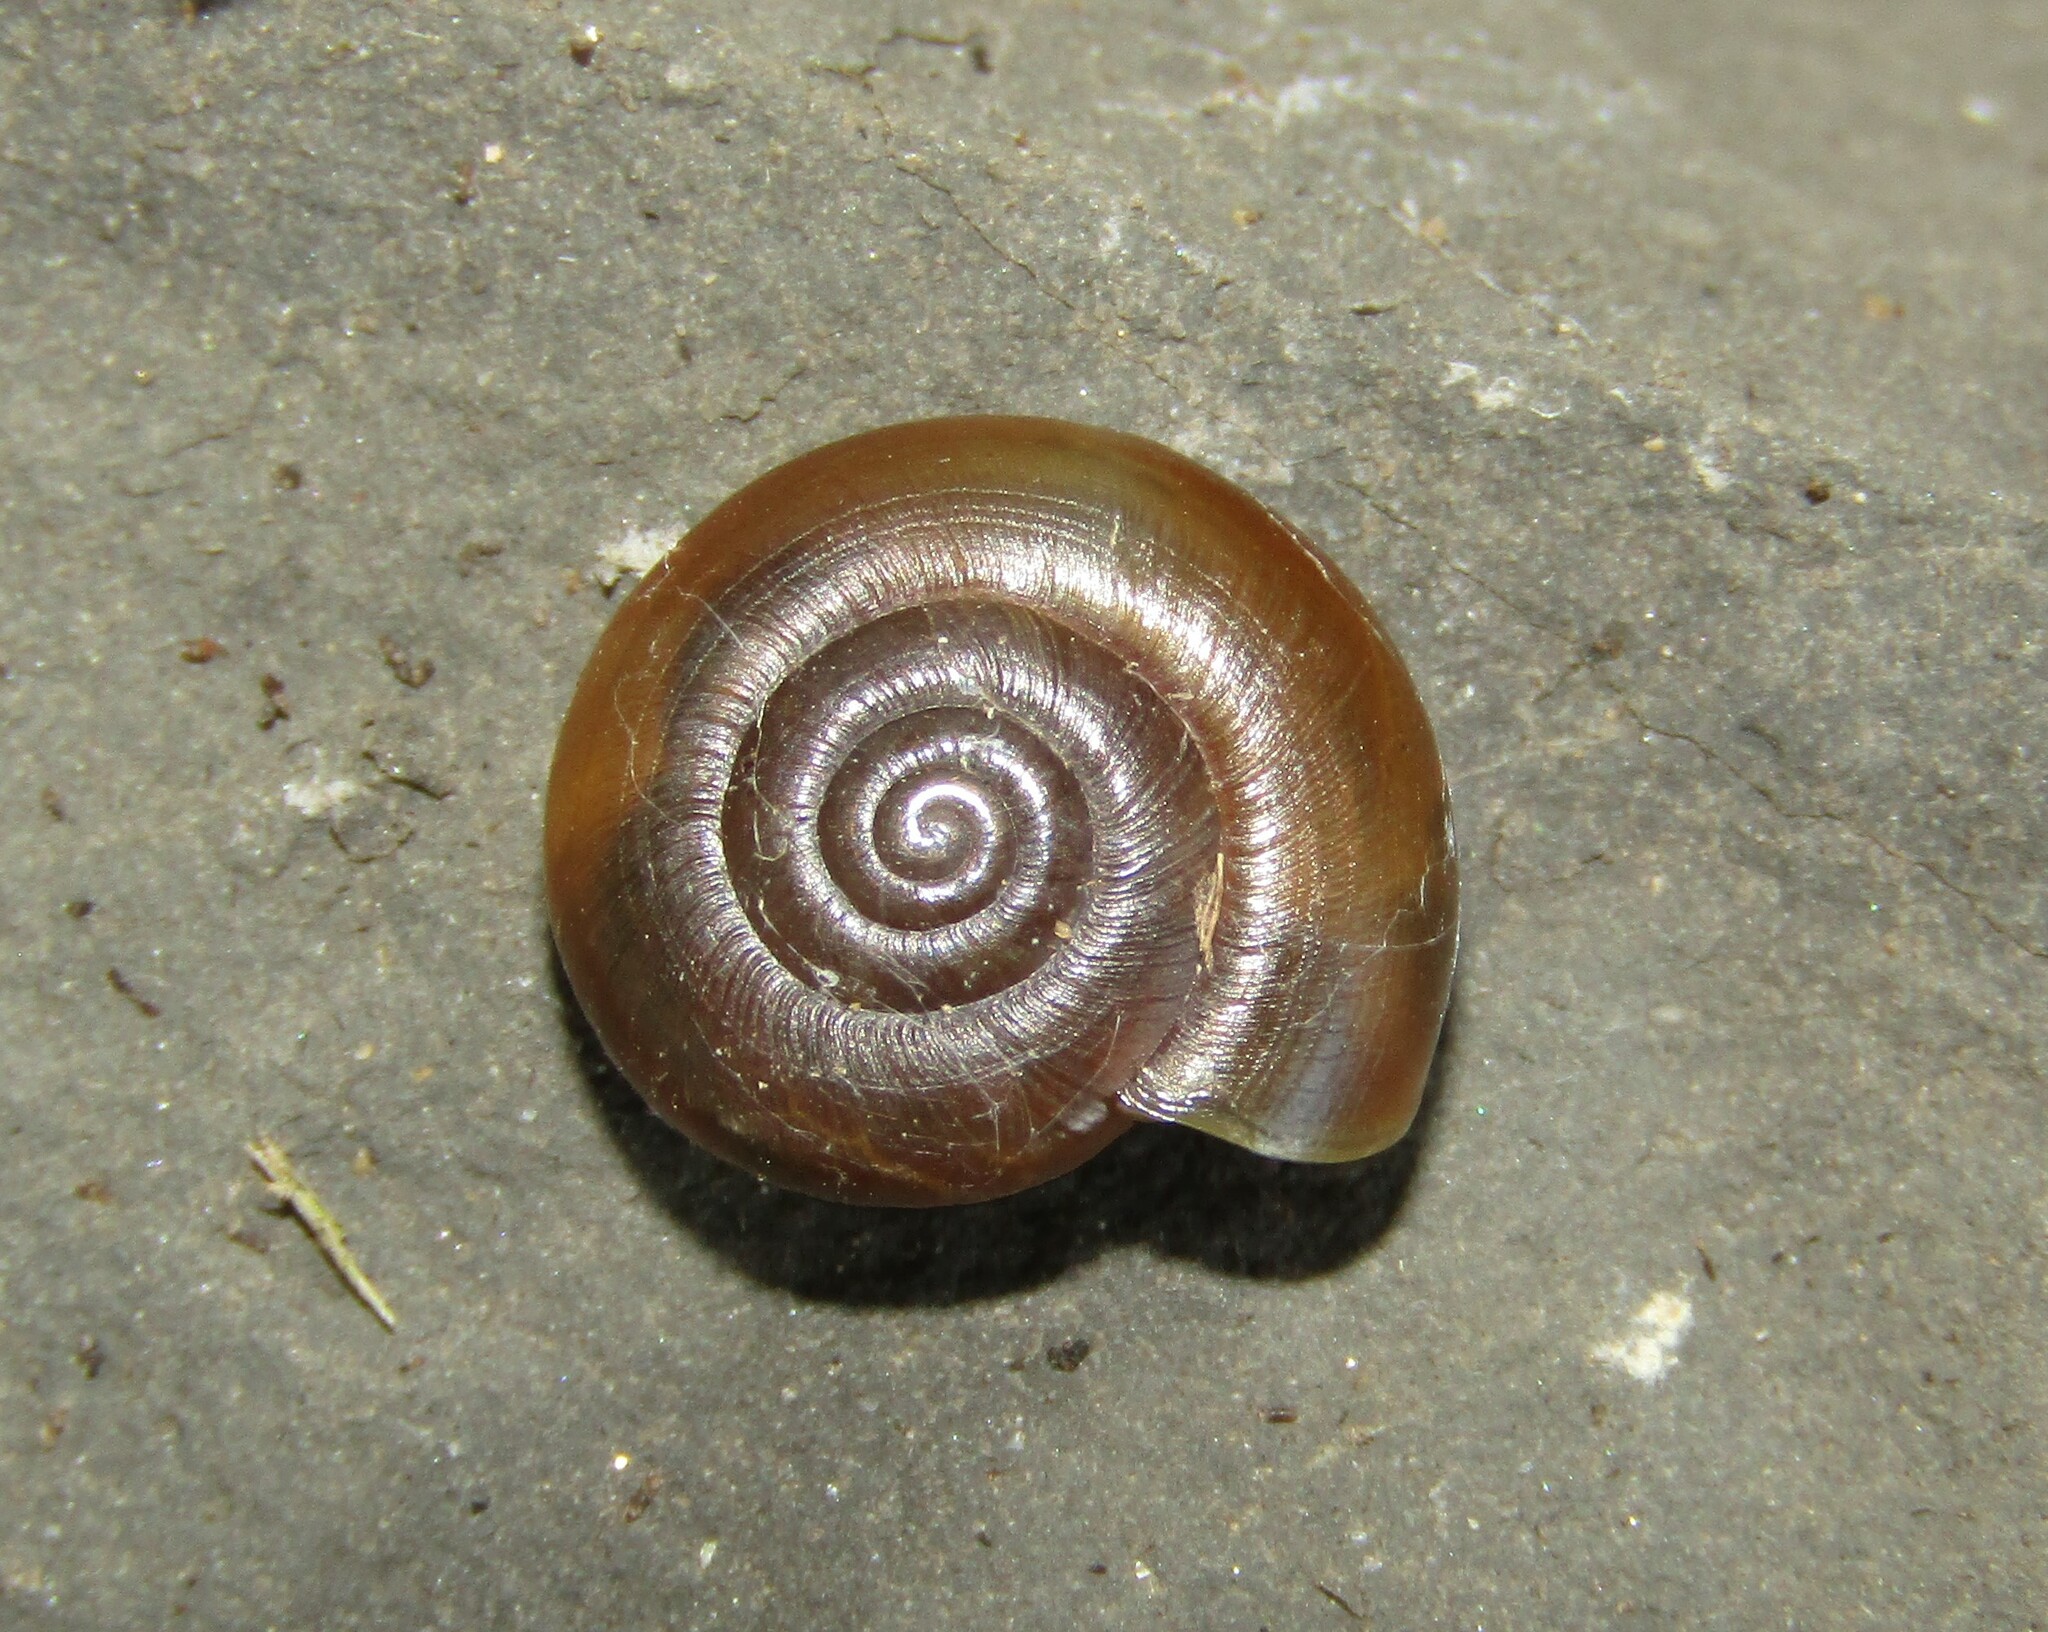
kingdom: Animalia
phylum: Mollusca
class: Gastropoda
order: Stylommatophora
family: Oxychilidae
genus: Oxychilus
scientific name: Oxychilus mingrelicus
